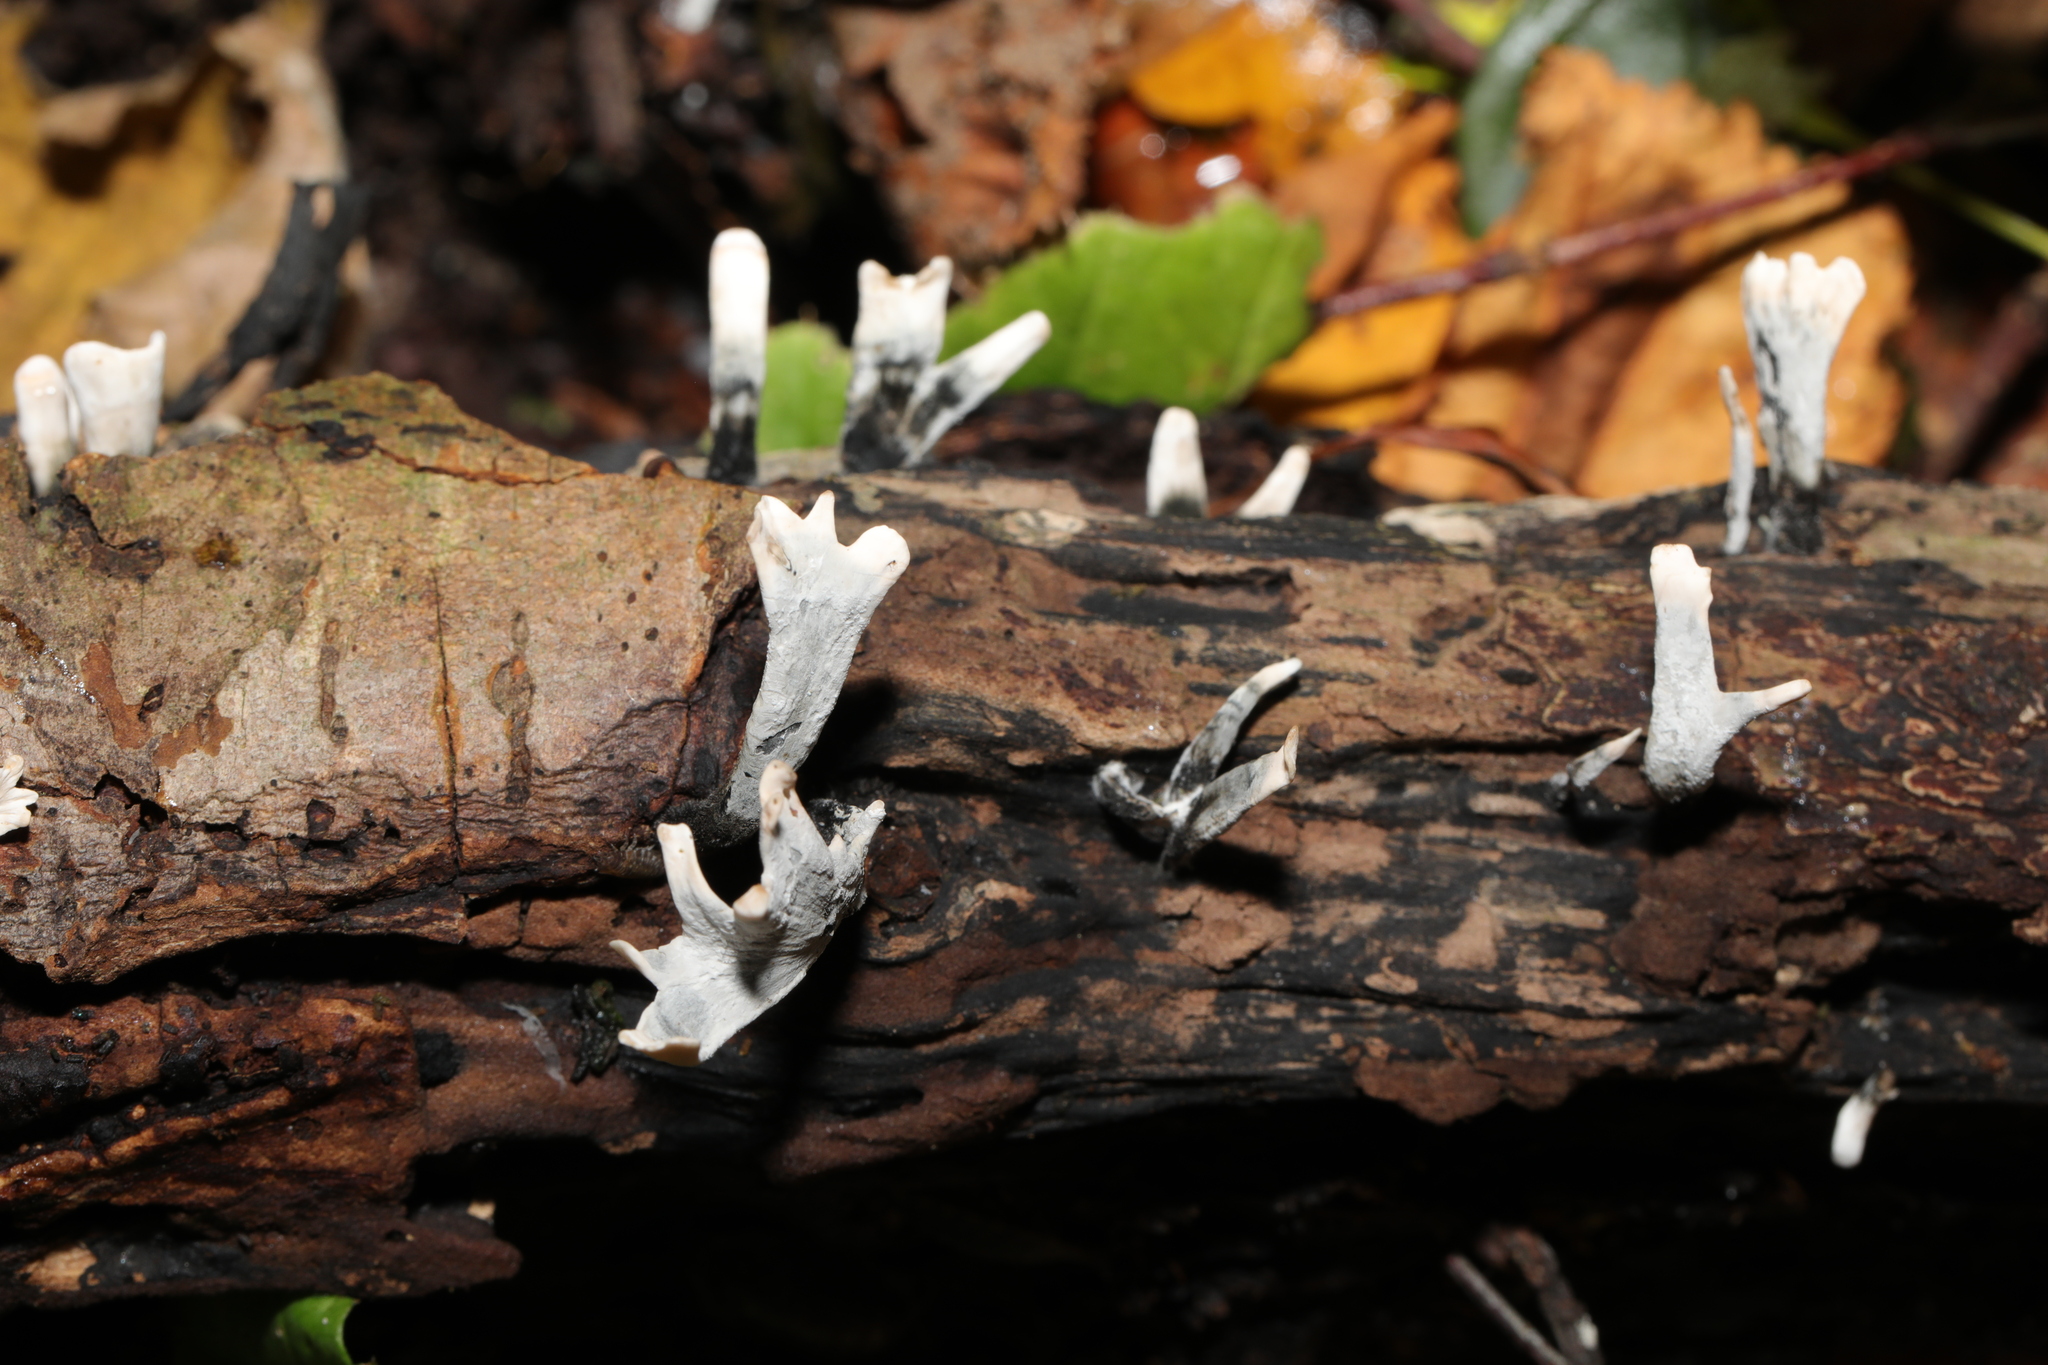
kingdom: Fungi
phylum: Ascomycota
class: Sordariomycetes
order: Xylariales
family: Xylariaceae
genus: Xylaria
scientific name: Xylaria hypoxylon
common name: Candle-snuff fungus
